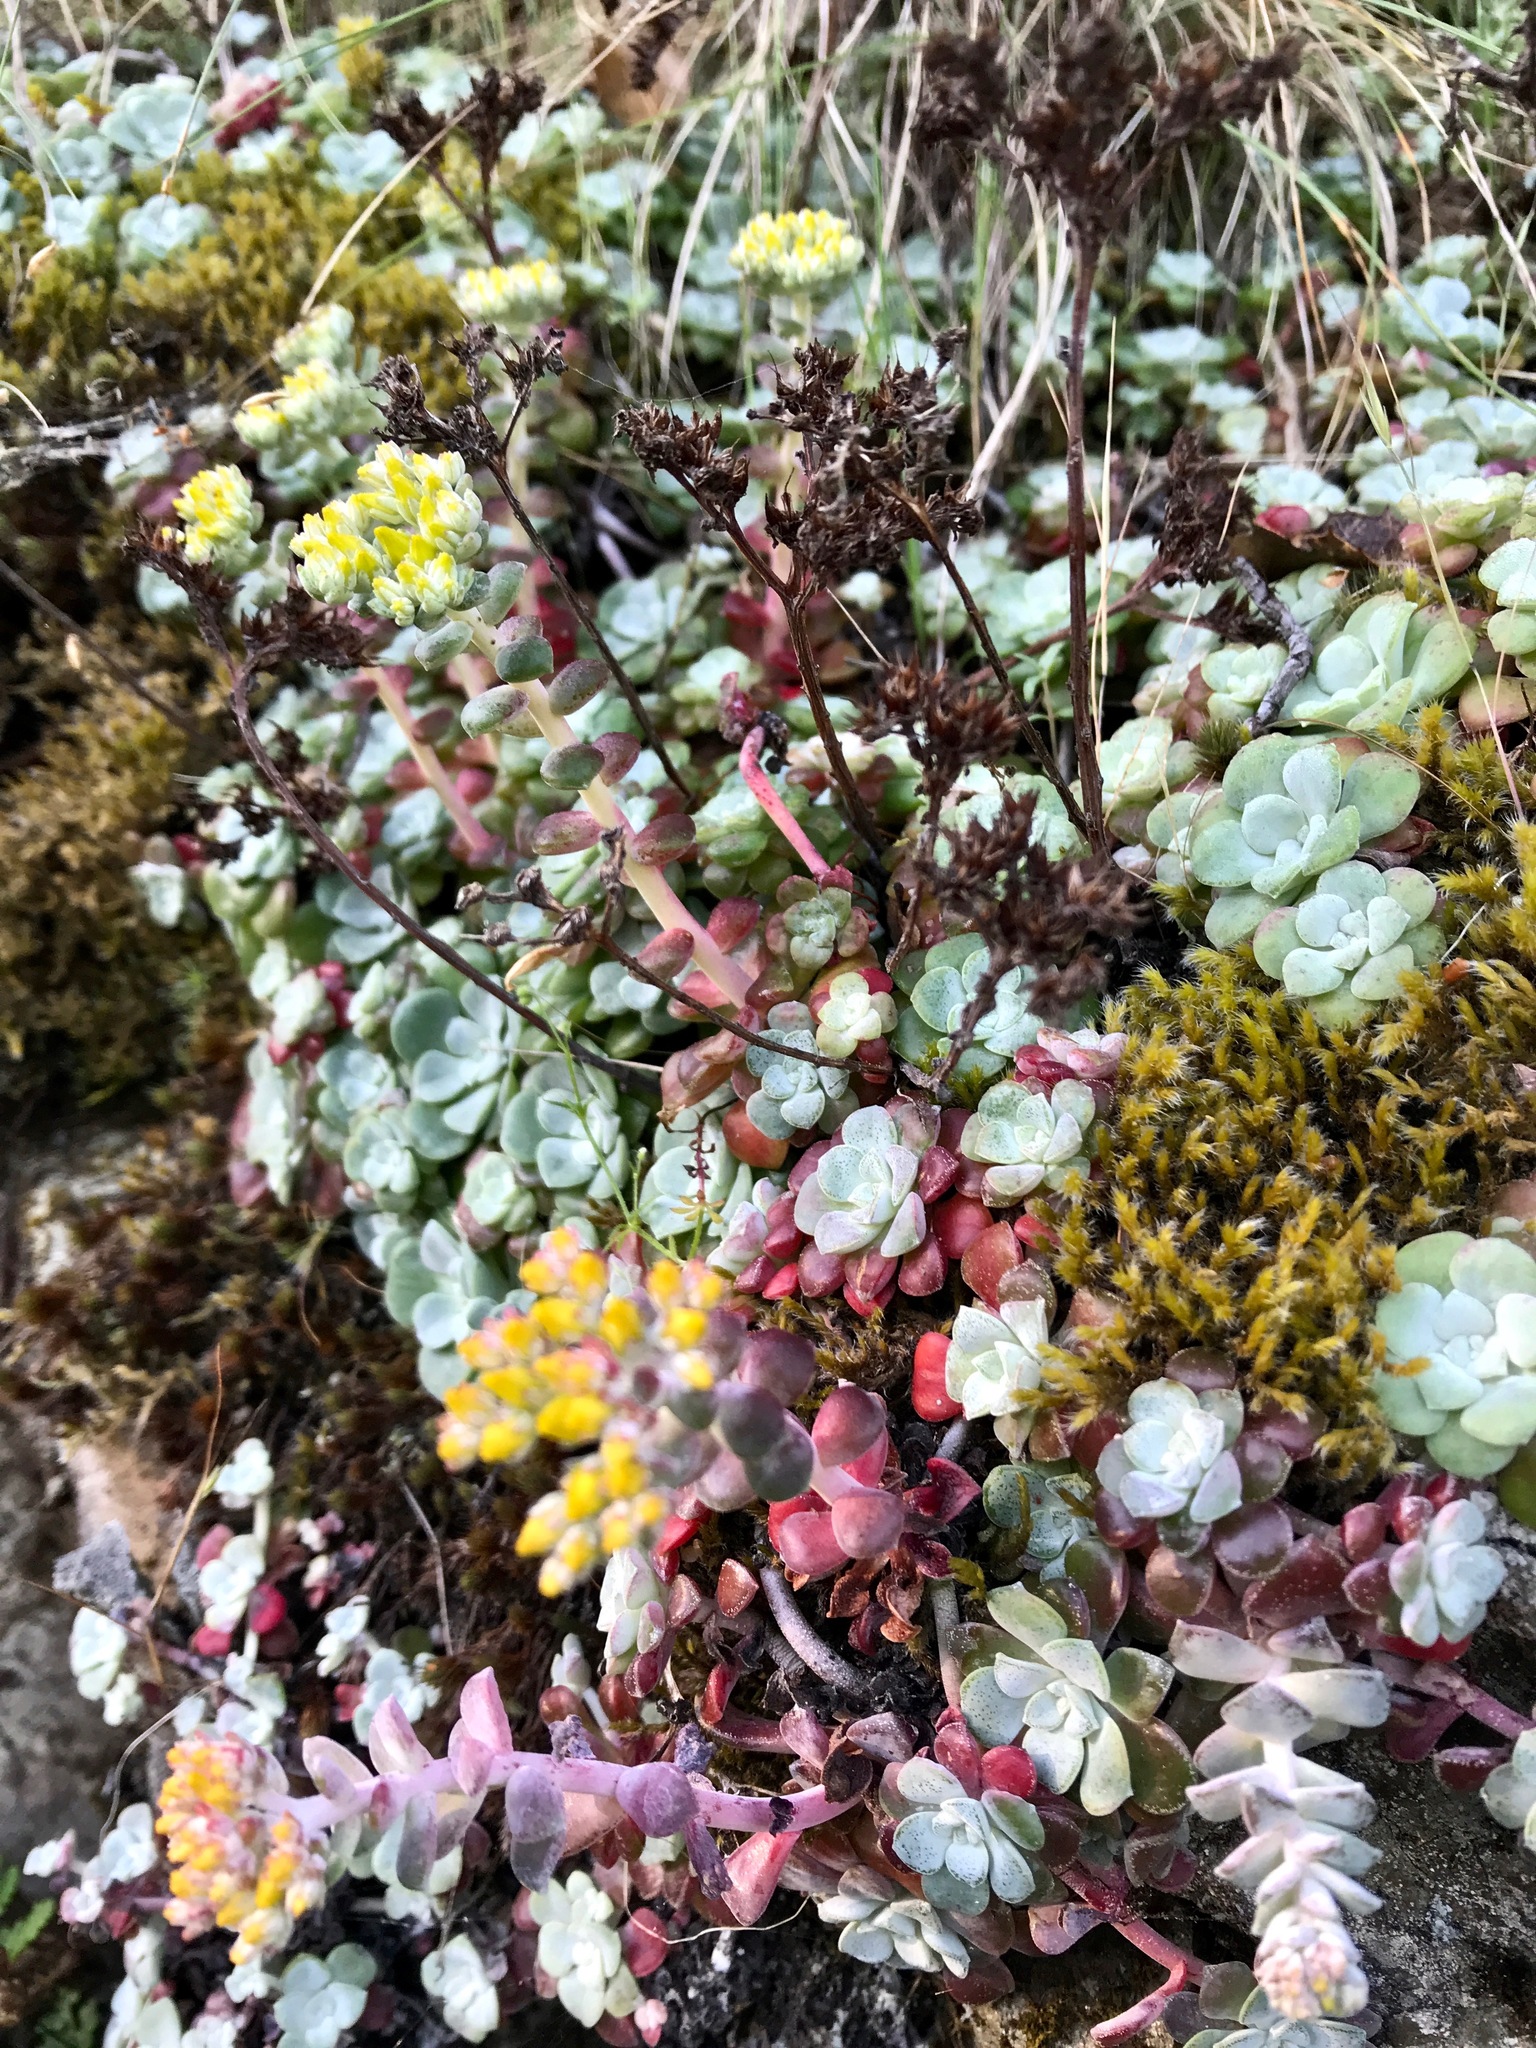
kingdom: Plantae
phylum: Tracheophyta
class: Magnoliopsida
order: Saxifragales
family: Crassulaceae
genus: Sedum
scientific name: Sedum spathulifolium
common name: Colorado stonecrop
